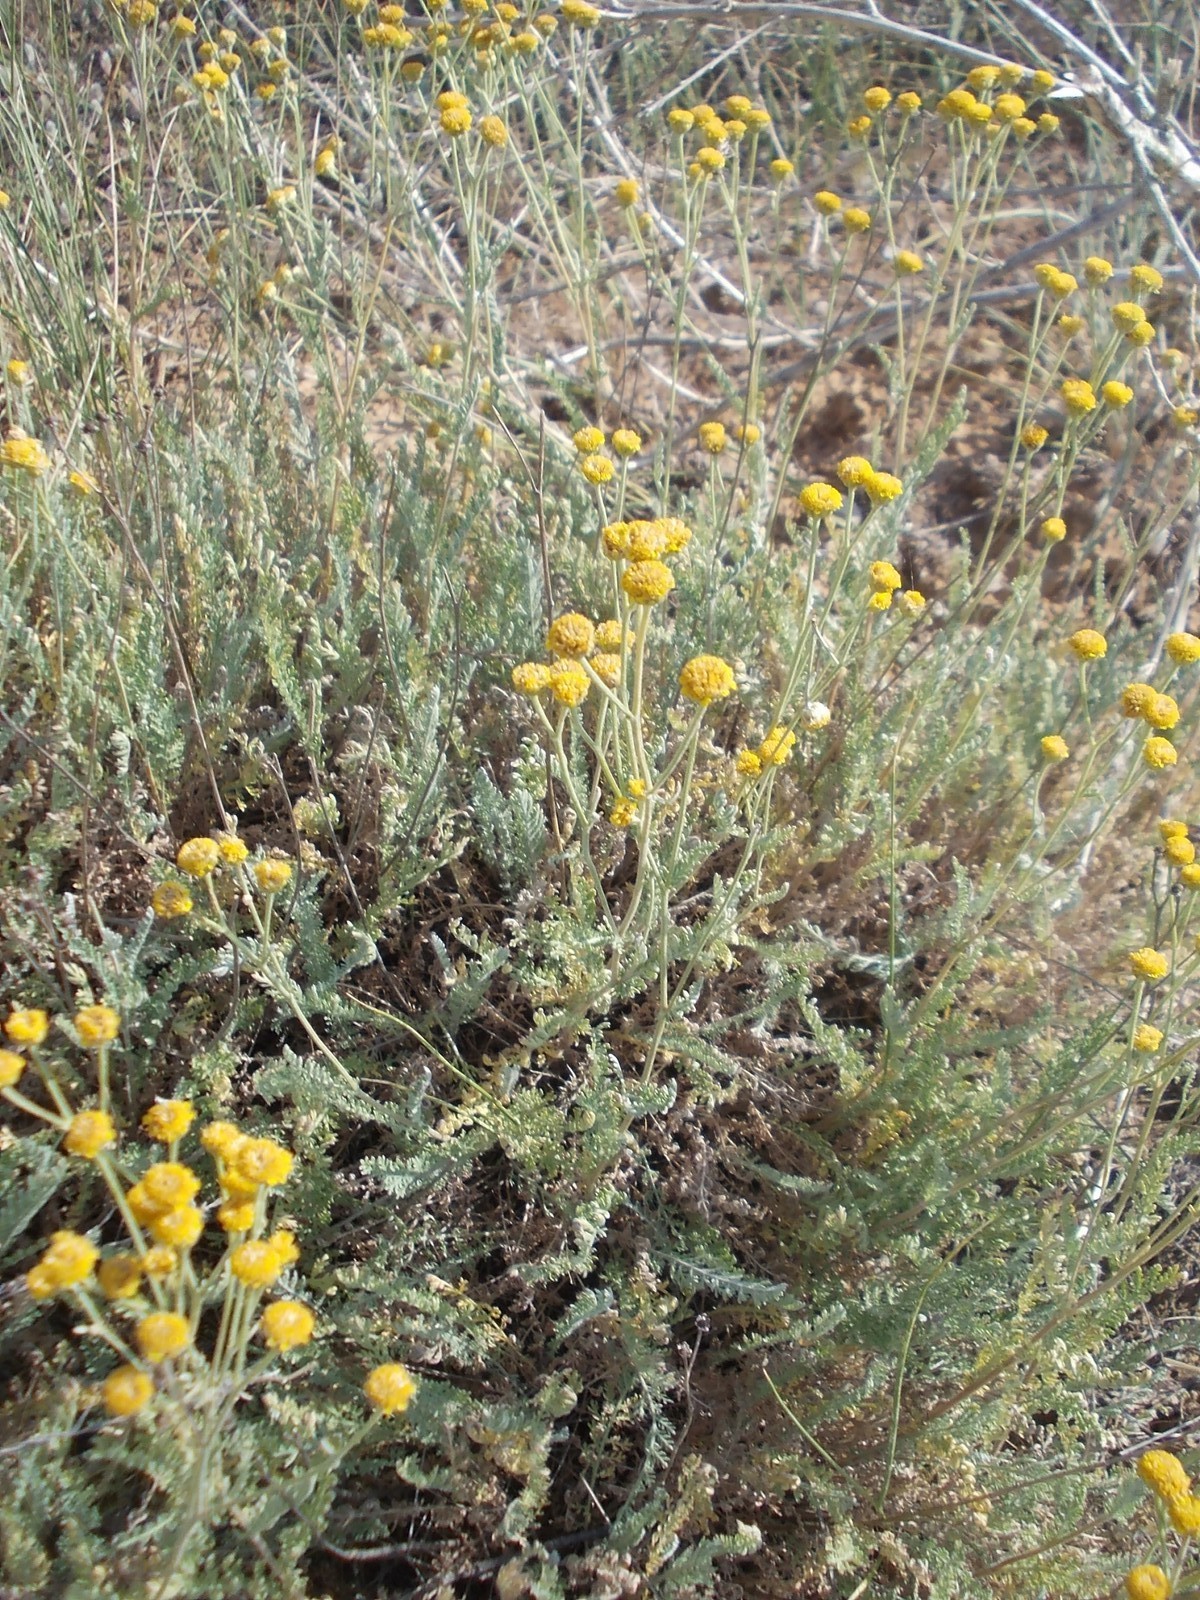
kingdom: Plantae
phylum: Tracheophyta
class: Magnoliopsida
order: Asterales
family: Asteraceae
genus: Tanacetum
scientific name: Tanacetum achilleifolium
